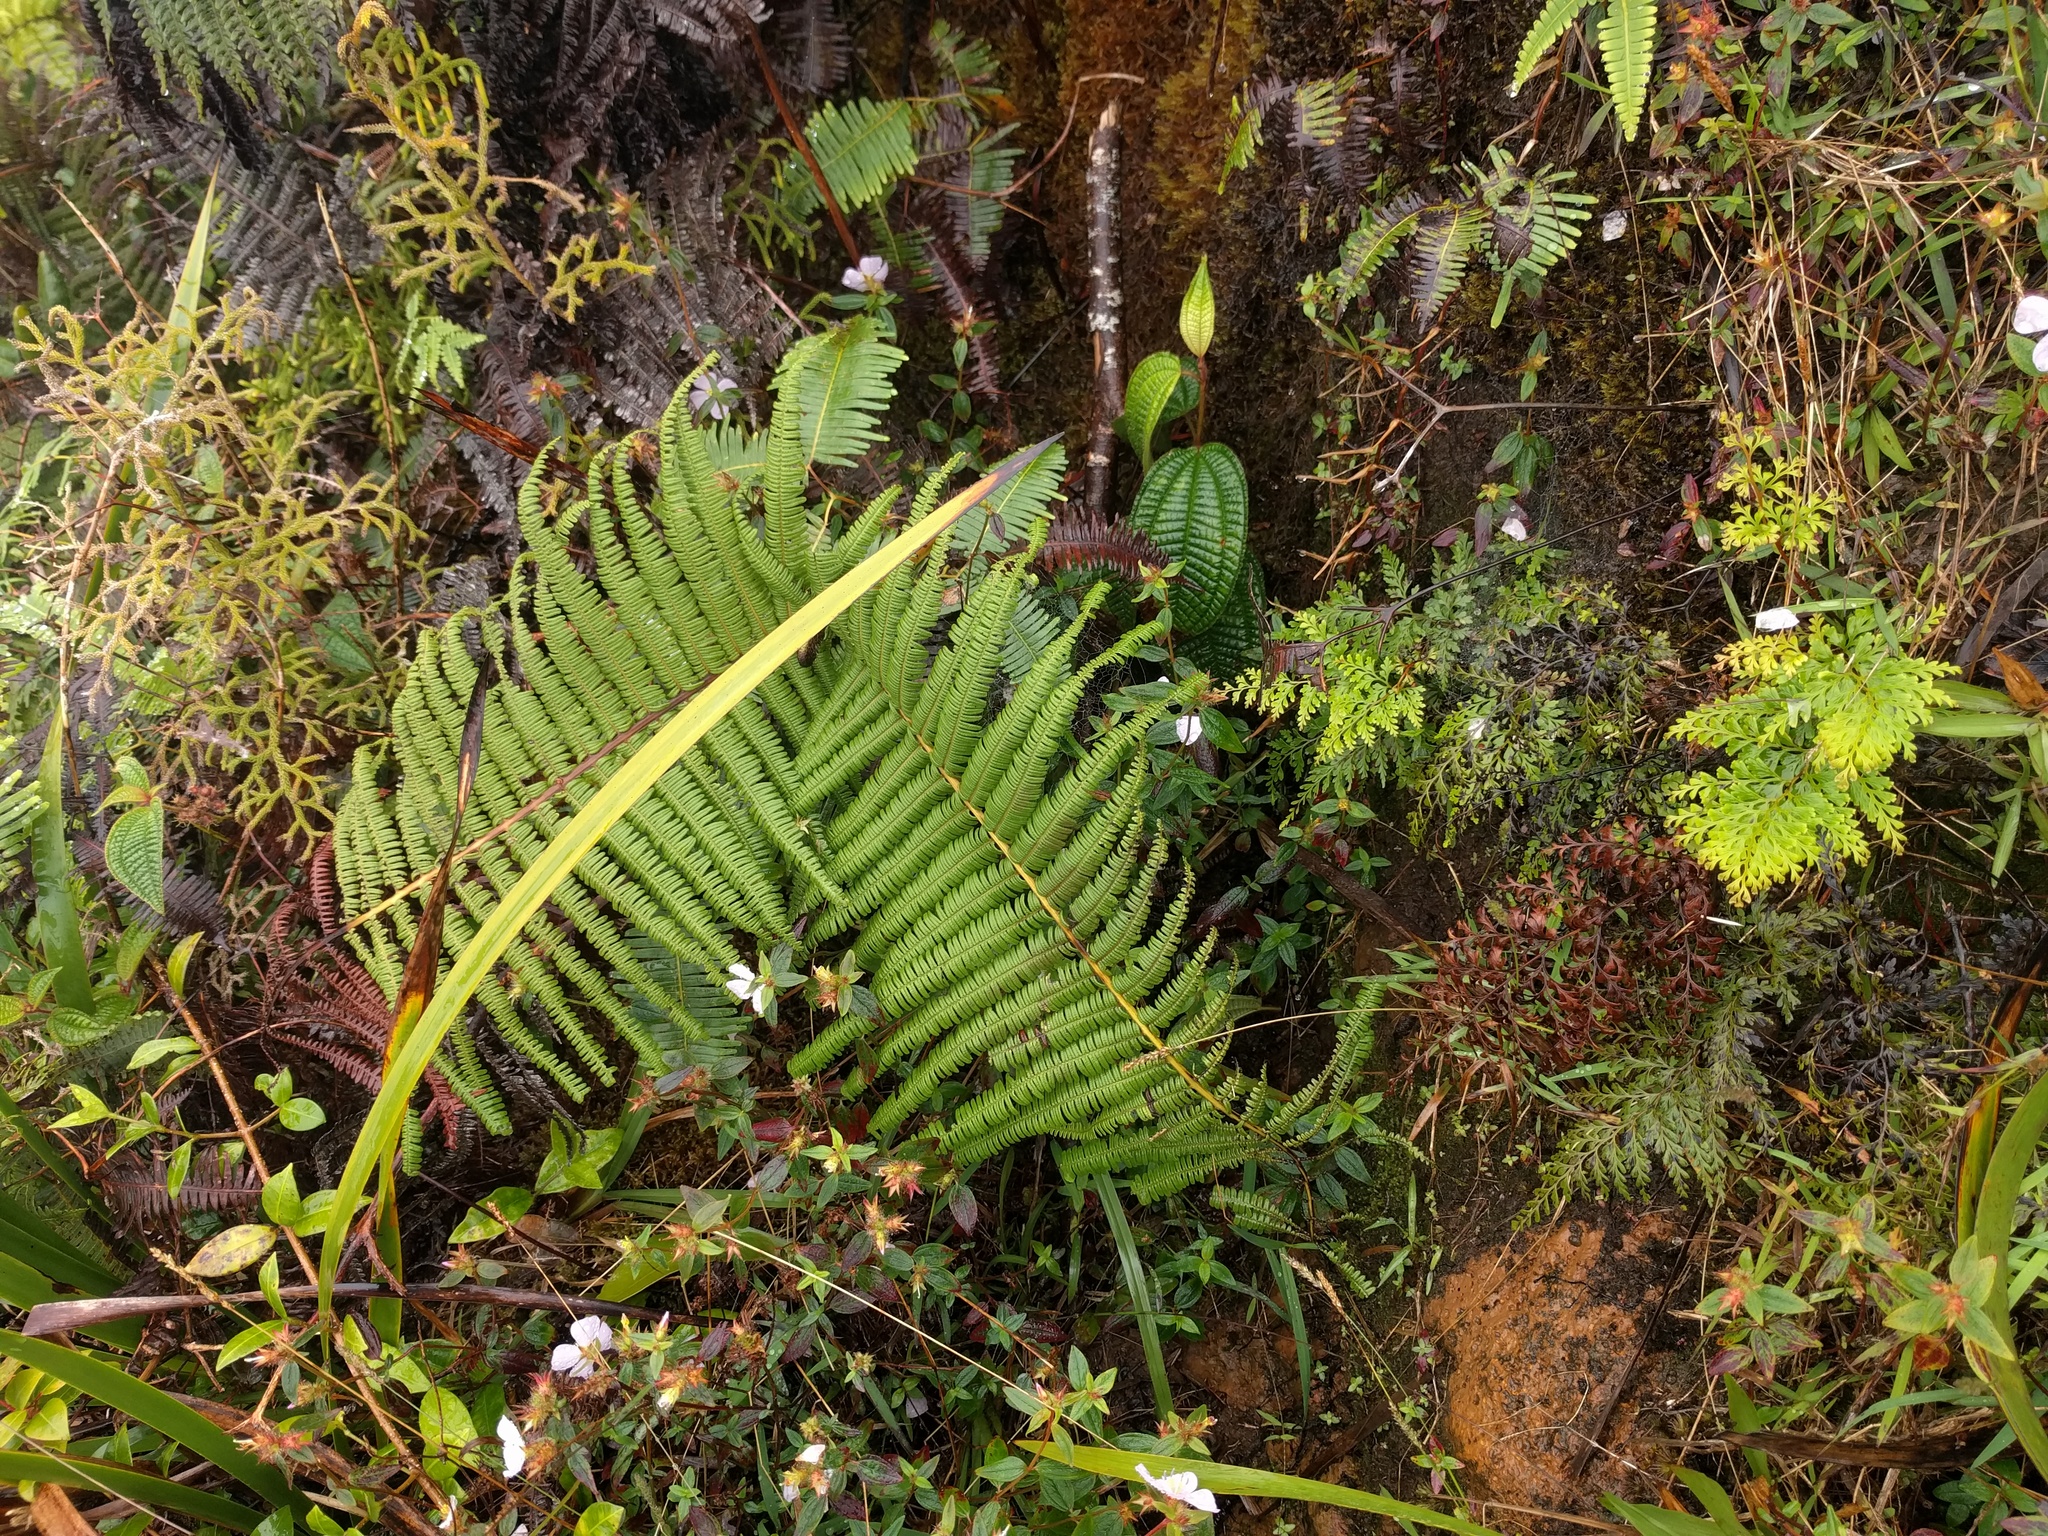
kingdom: Plantae
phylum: Tracheophyta
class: Polypodiopsida
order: Gleicheniales
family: Gleicheniaceae
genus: Diplopterygium
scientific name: Diplopterygium pinnatum
